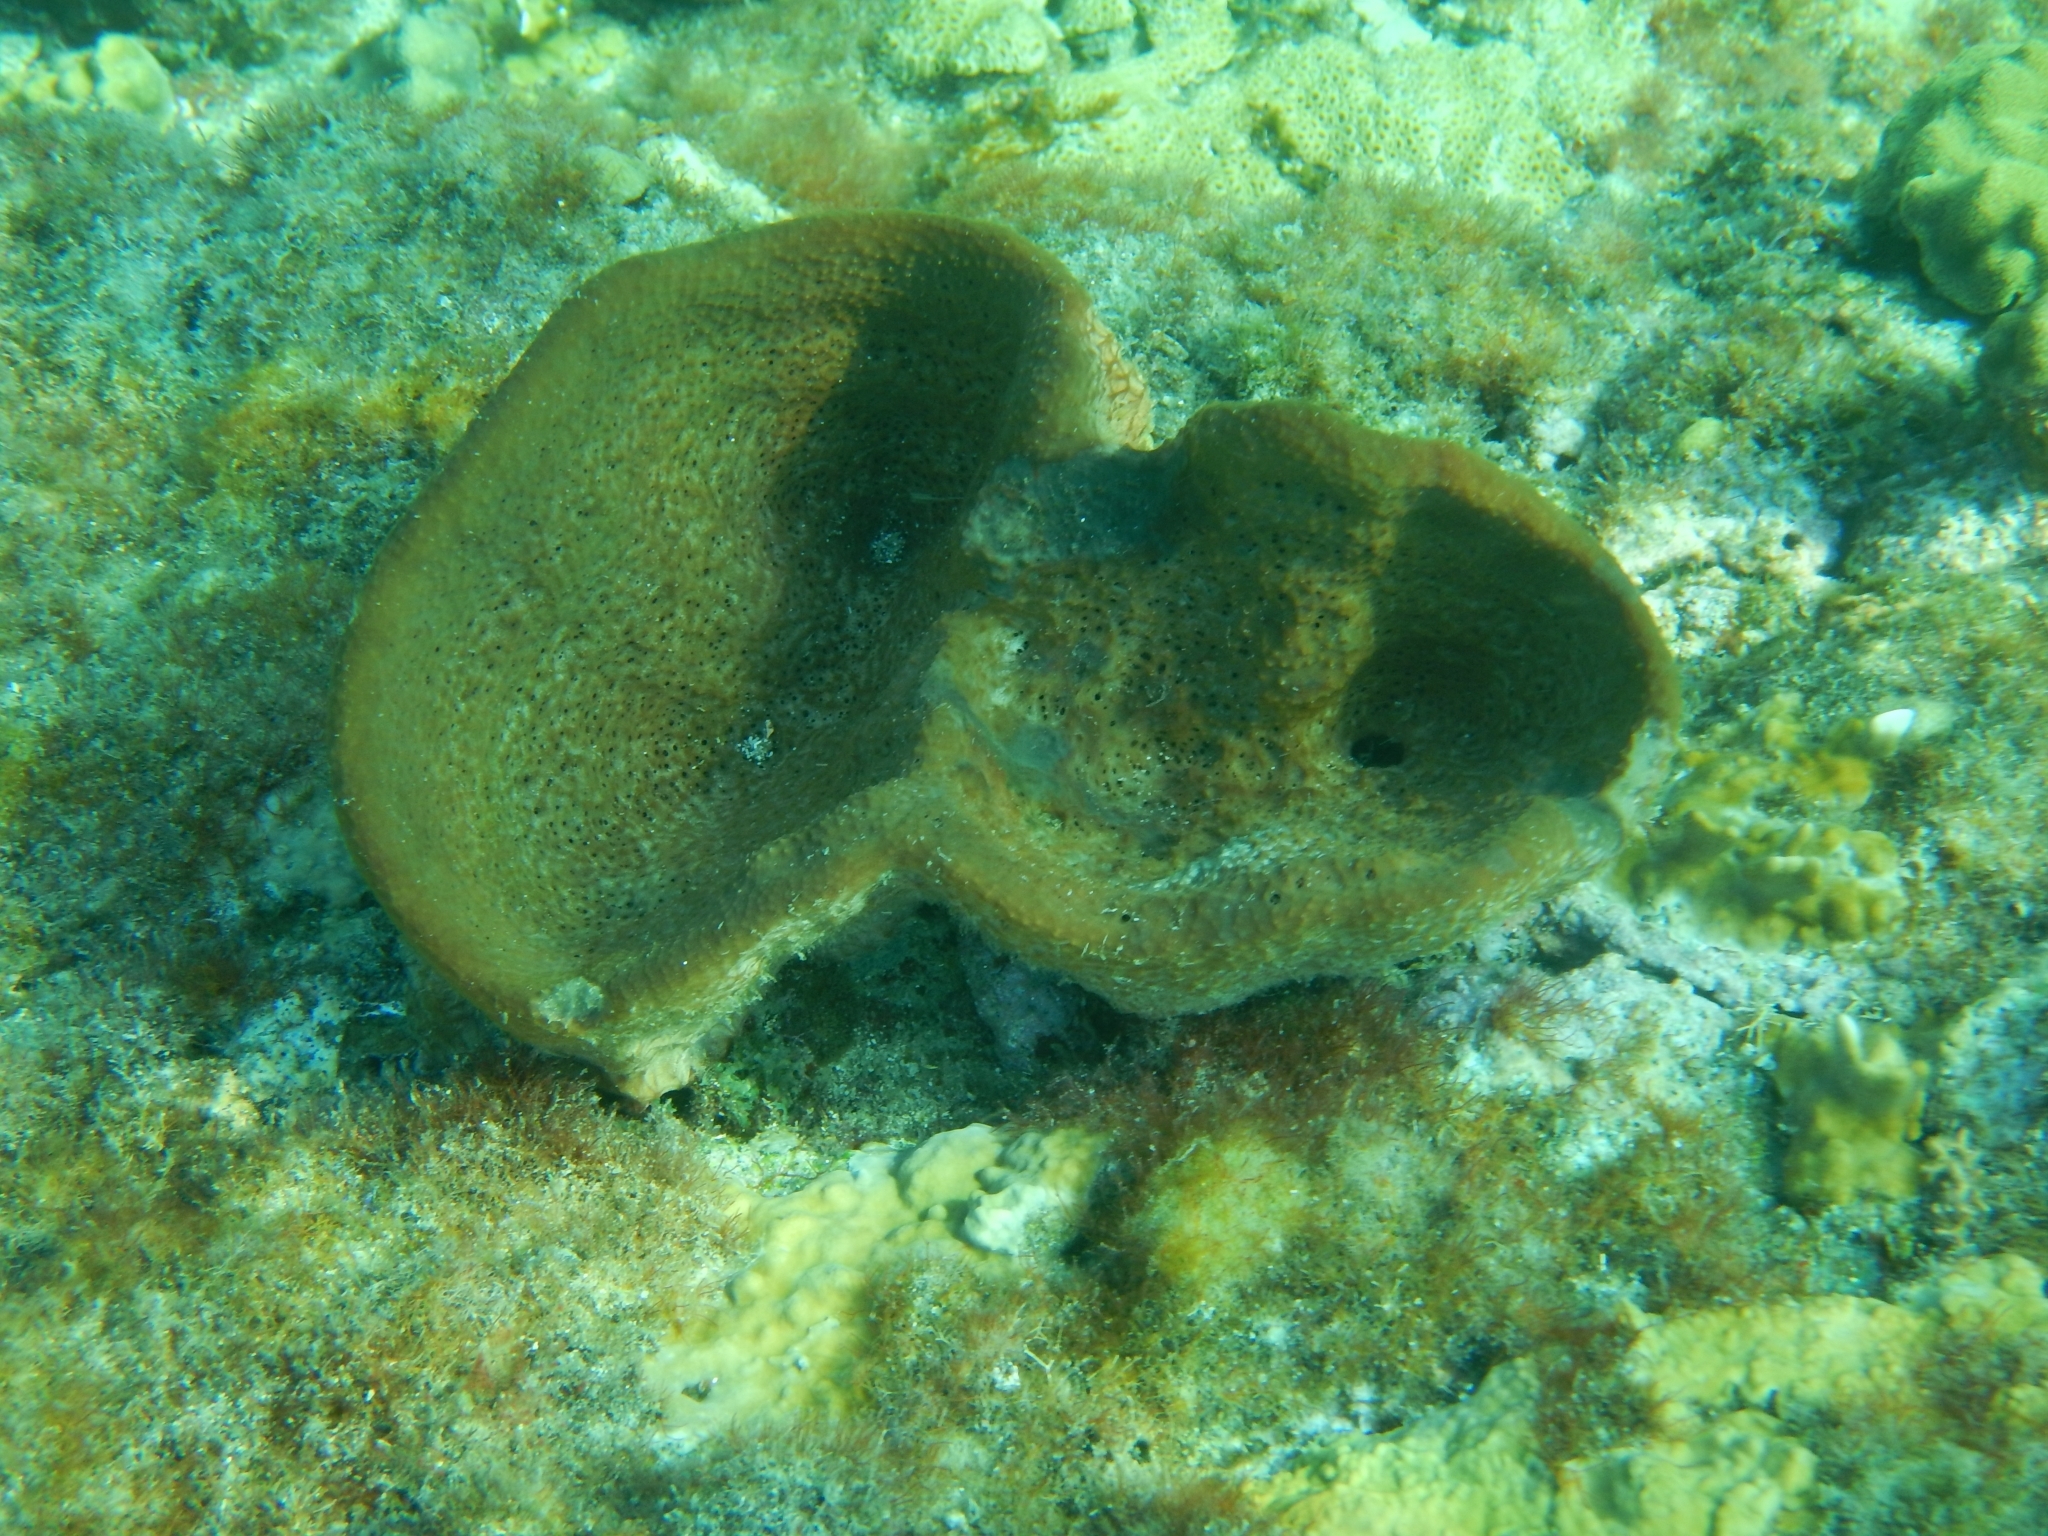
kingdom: Animalia
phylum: Porifera
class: Demospongiae
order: Dictyoceratida
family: Irciniidae
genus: Ircinia
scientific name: Ircinia campana
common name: Vase sponge
